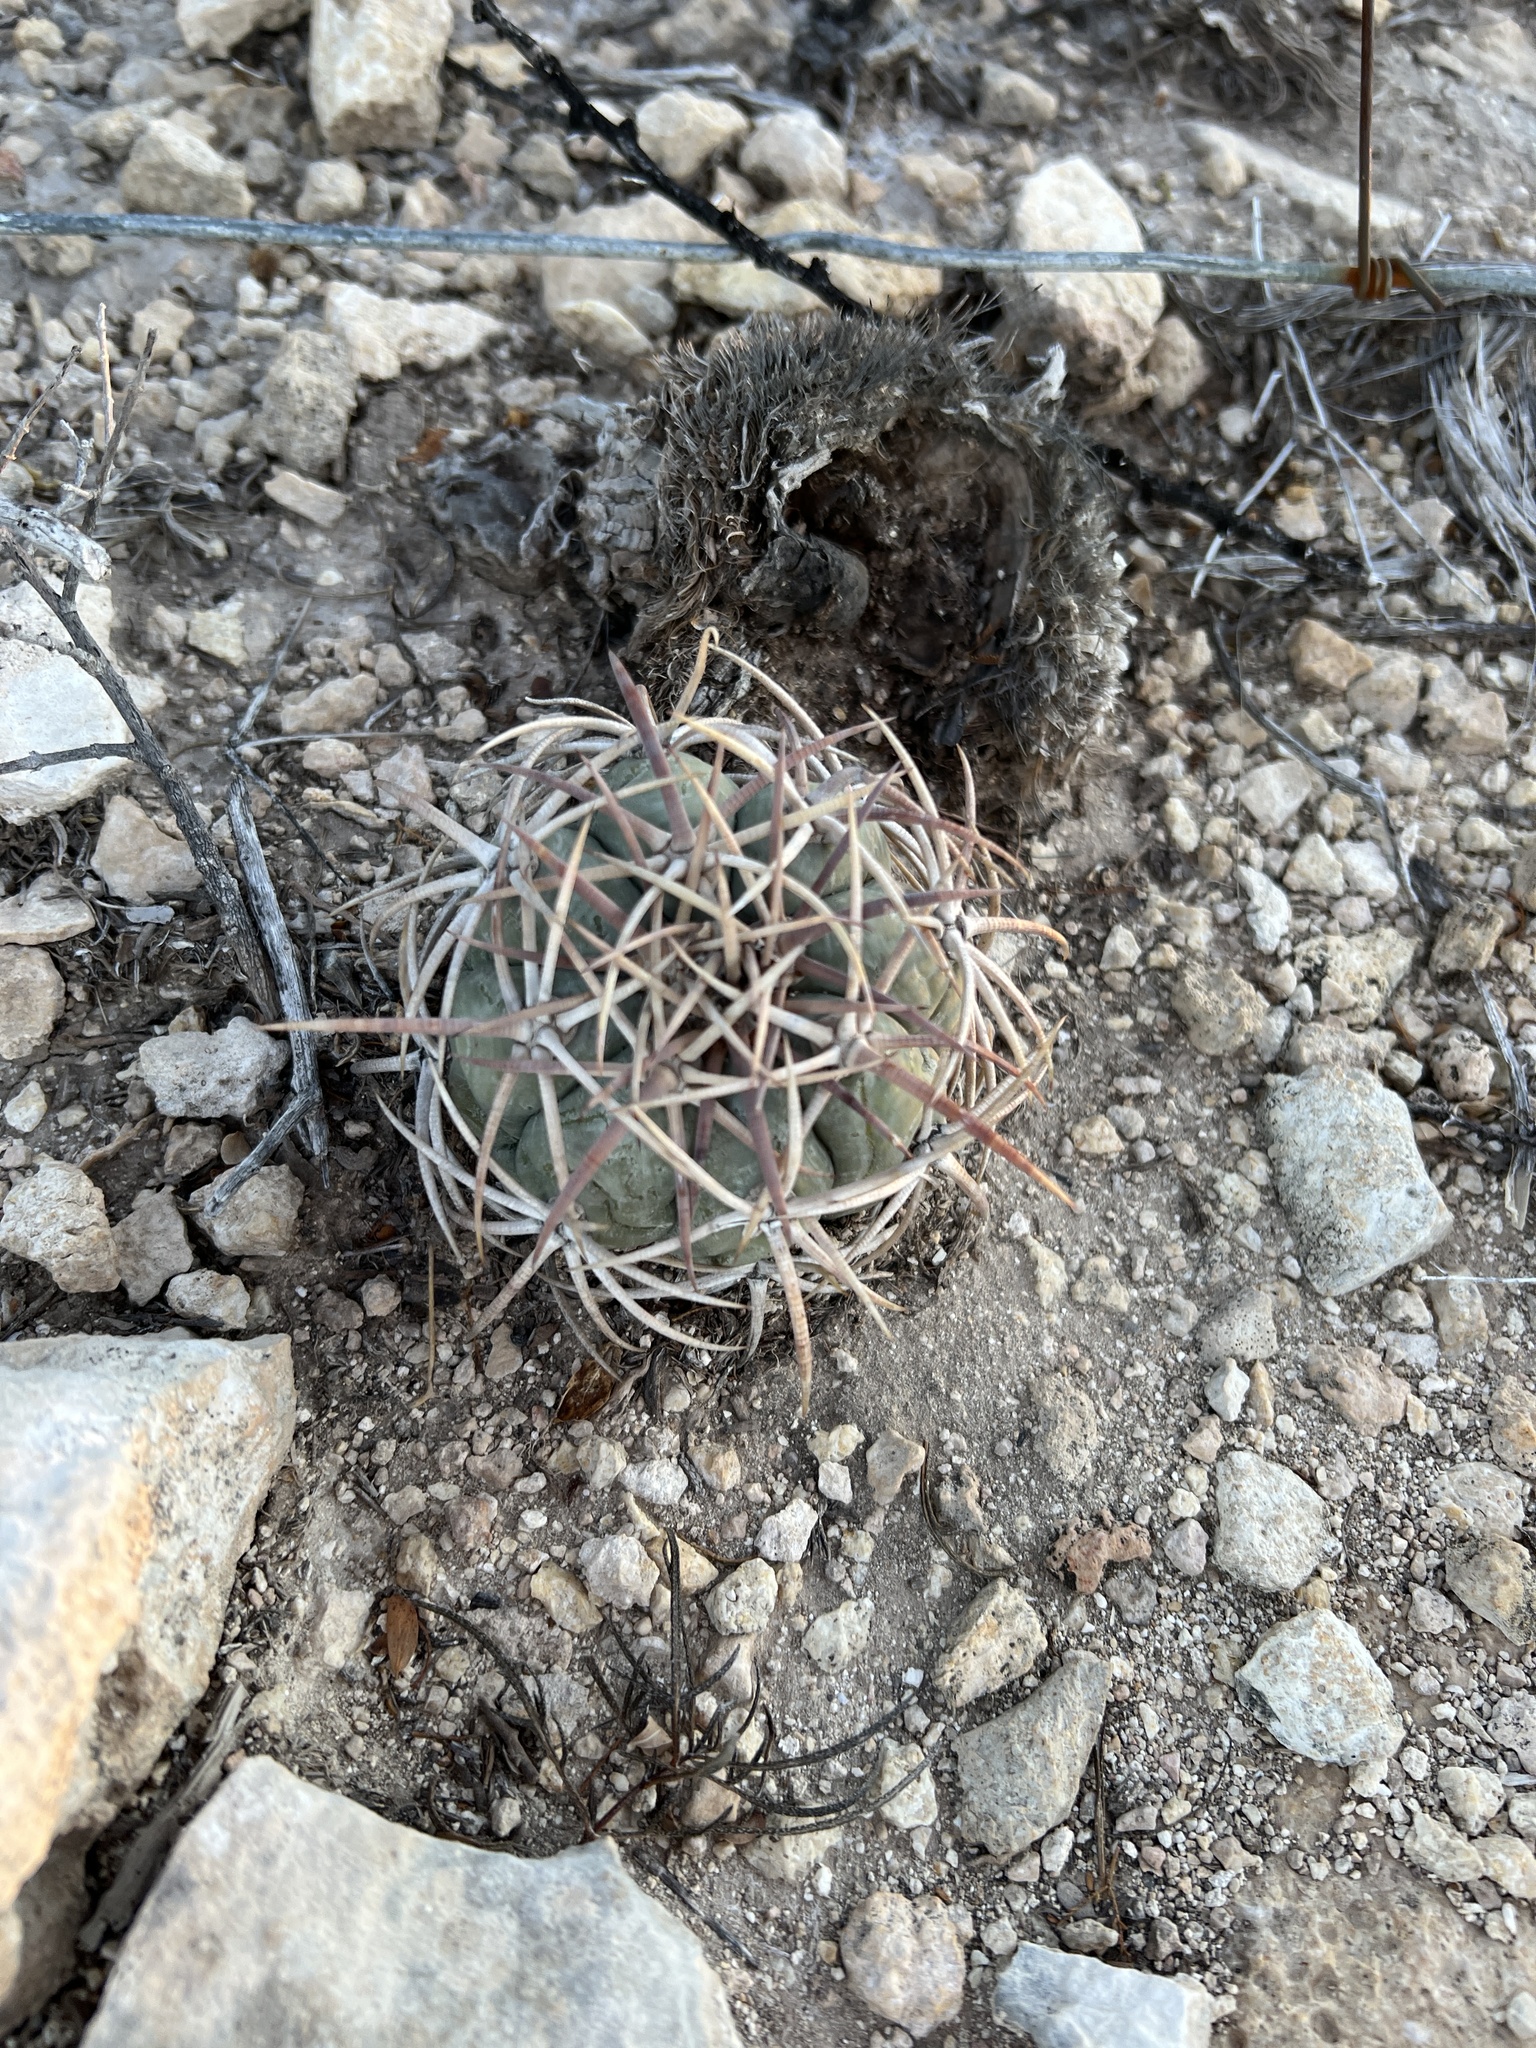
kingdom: Plantae
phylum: Tracheophyta
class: Magnoliopsida
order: Caryophyllales
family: Cactaceae
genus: Echinocactus
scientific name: Echinocactus horizonthalonius
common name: Devilshead
